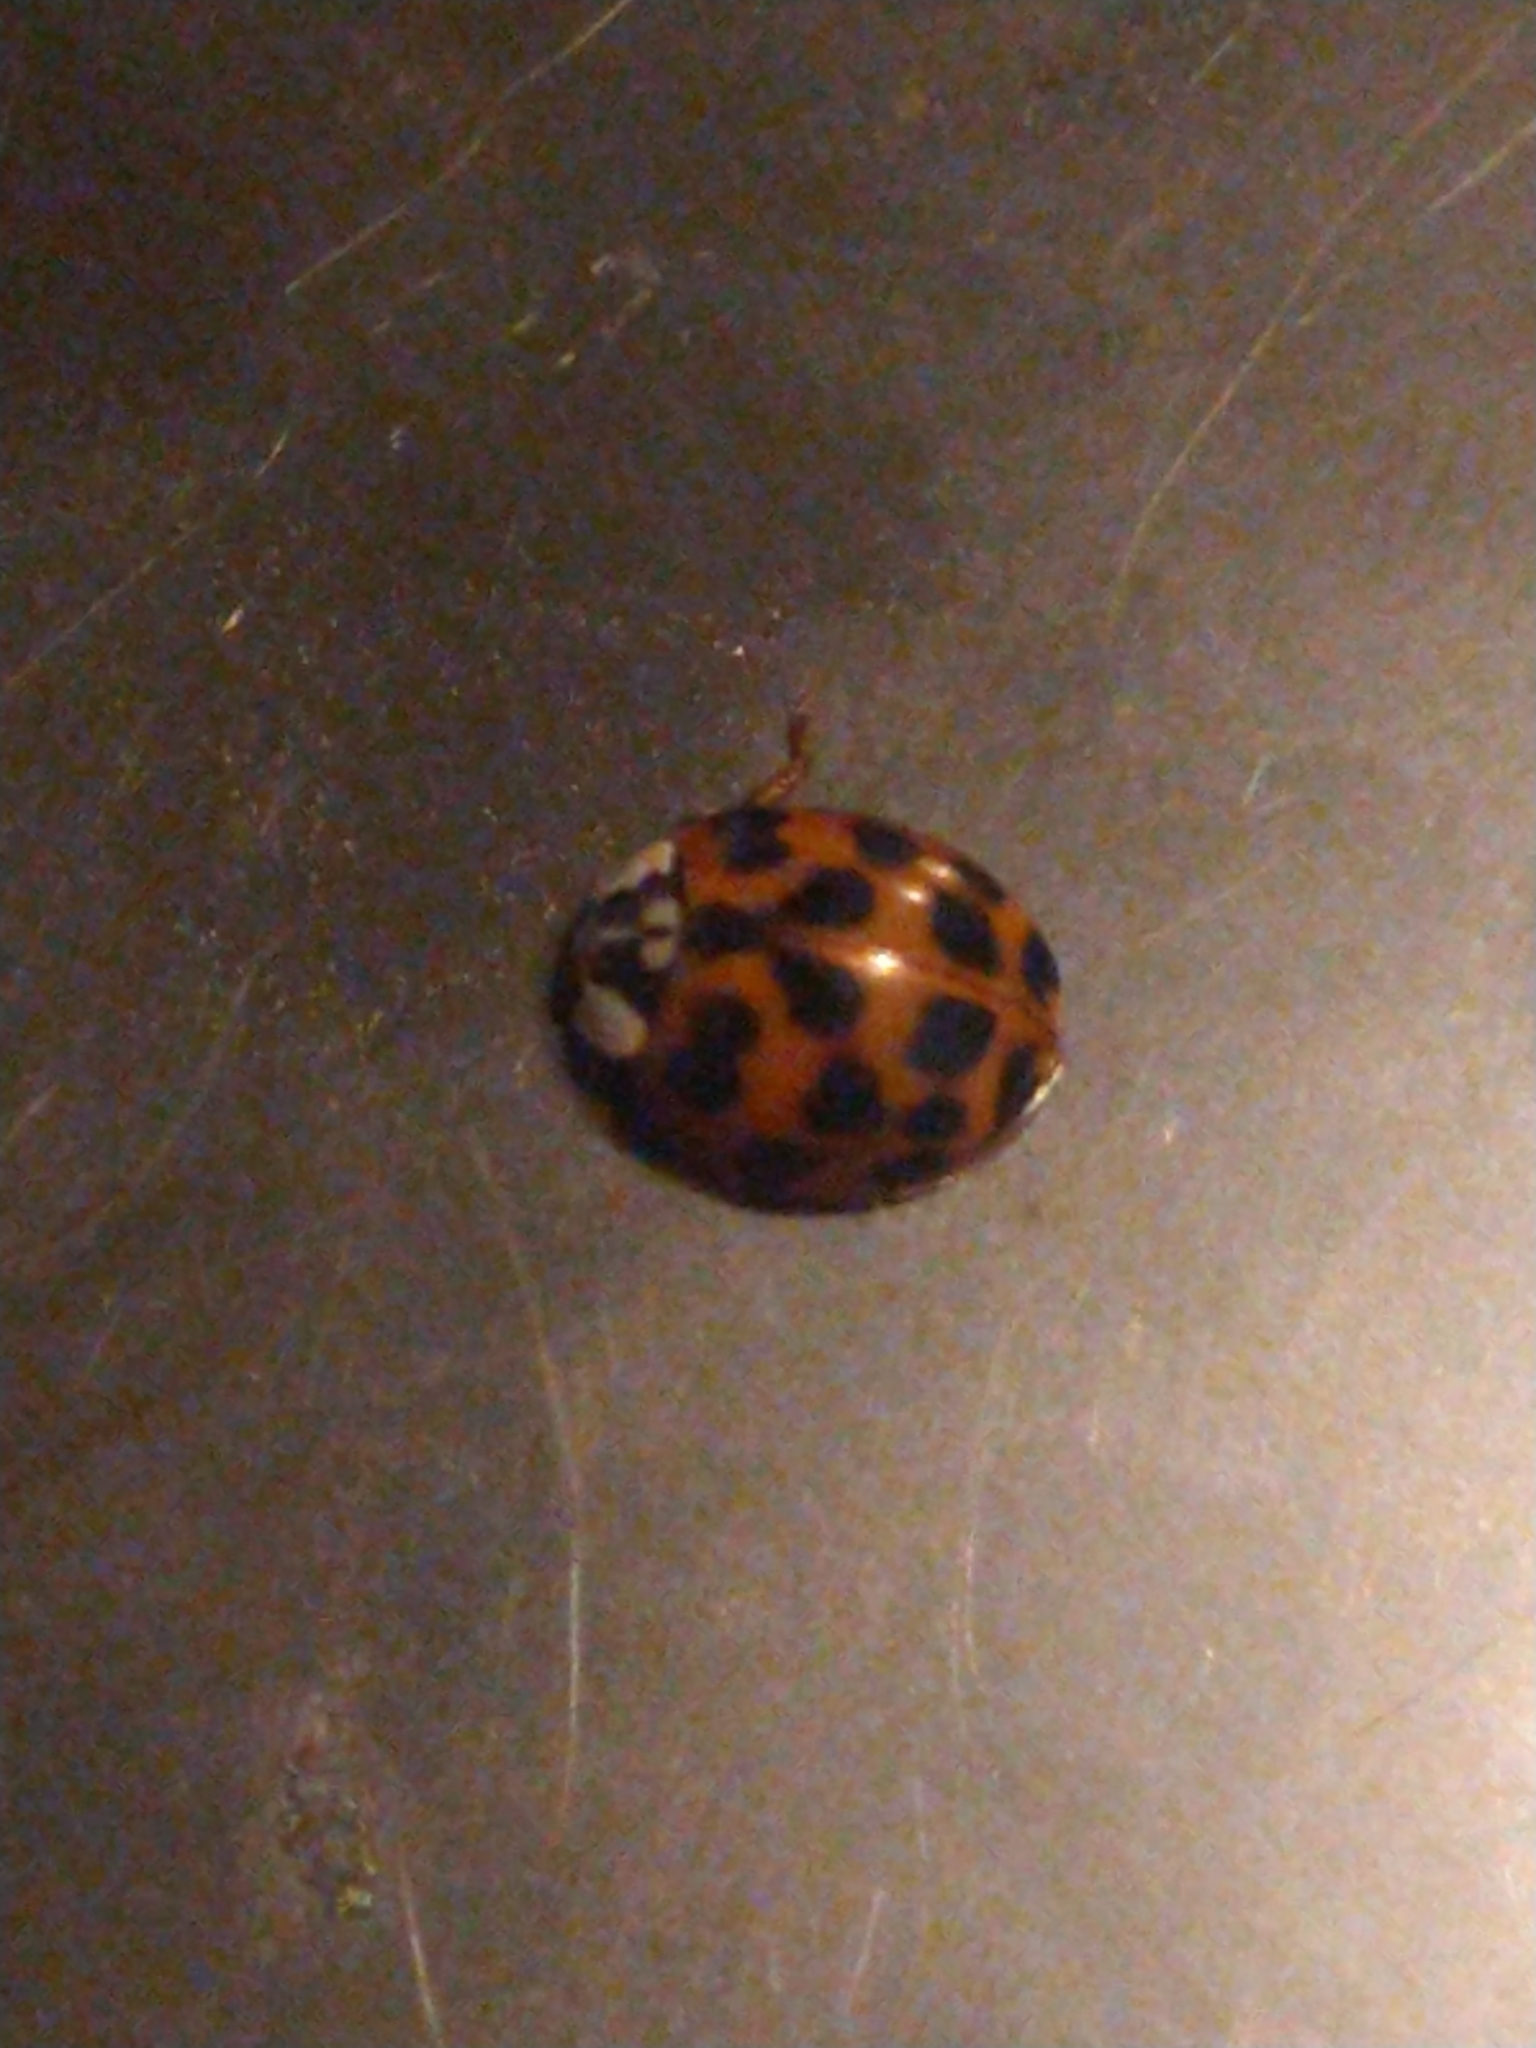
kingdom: Animalia
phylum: Arthropoda
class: Insecta
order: Coleoptera
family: Coccinellidae
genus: Harmonia
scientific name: Harmonia axyridis
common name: Harlequin ladybird
